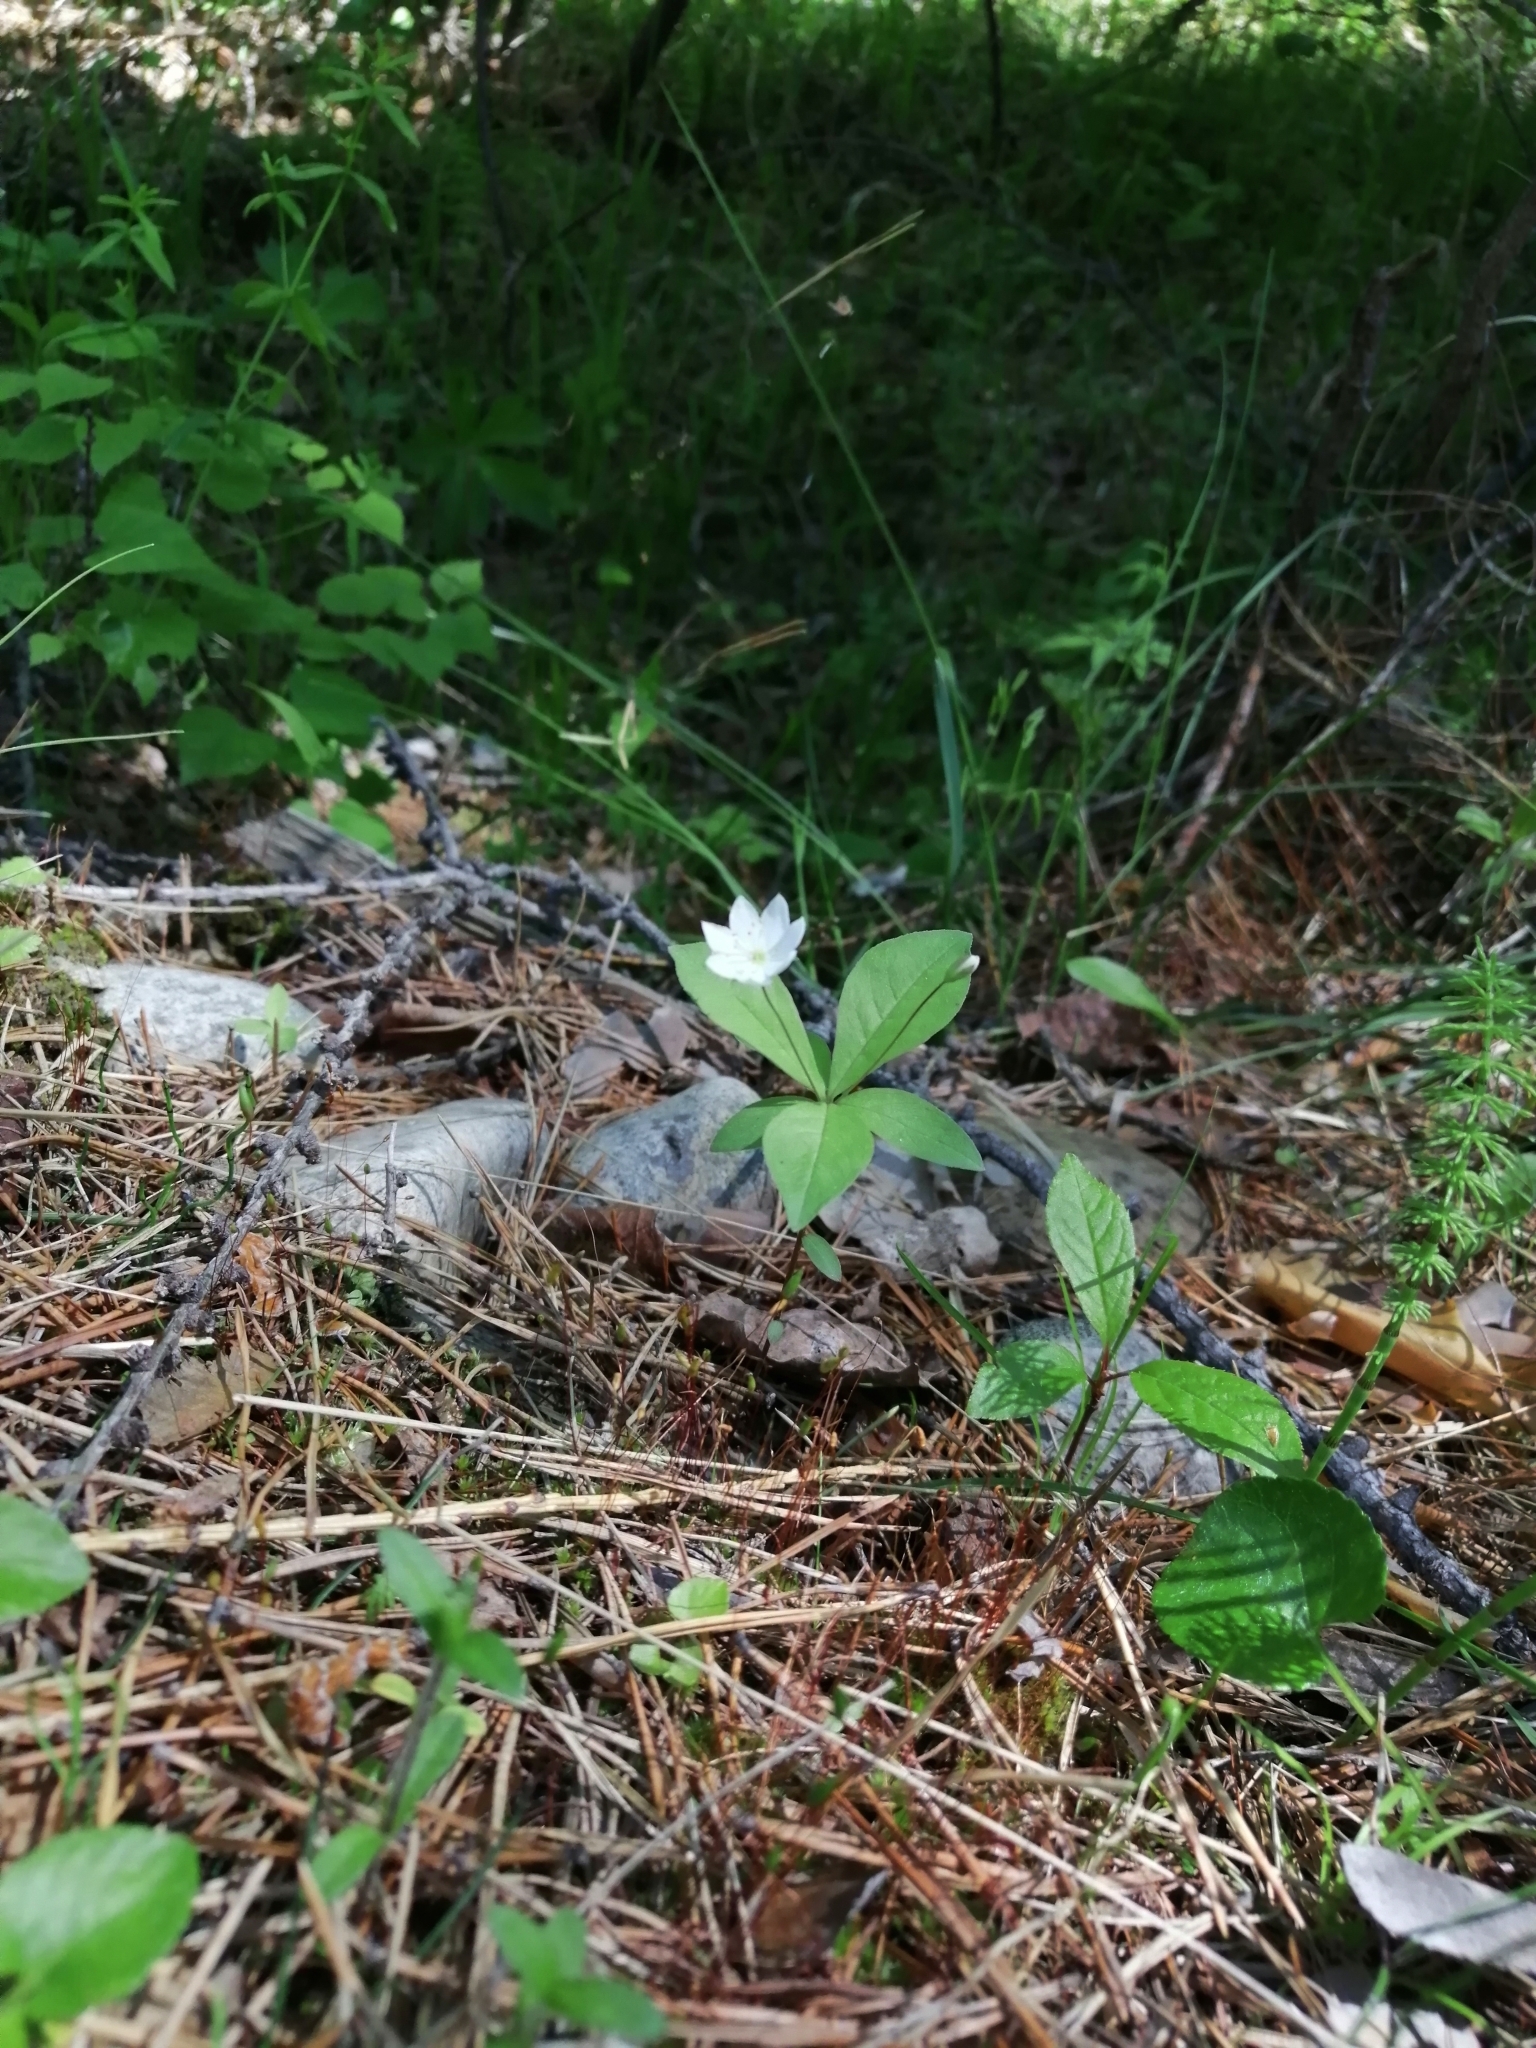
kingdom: Plantae
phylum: Tracheophyta
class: Magnoliopsida
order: Ericales
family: Primulaceae
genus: Lysimachia
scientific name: Lysimachia europaea
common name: Arctic starflower
